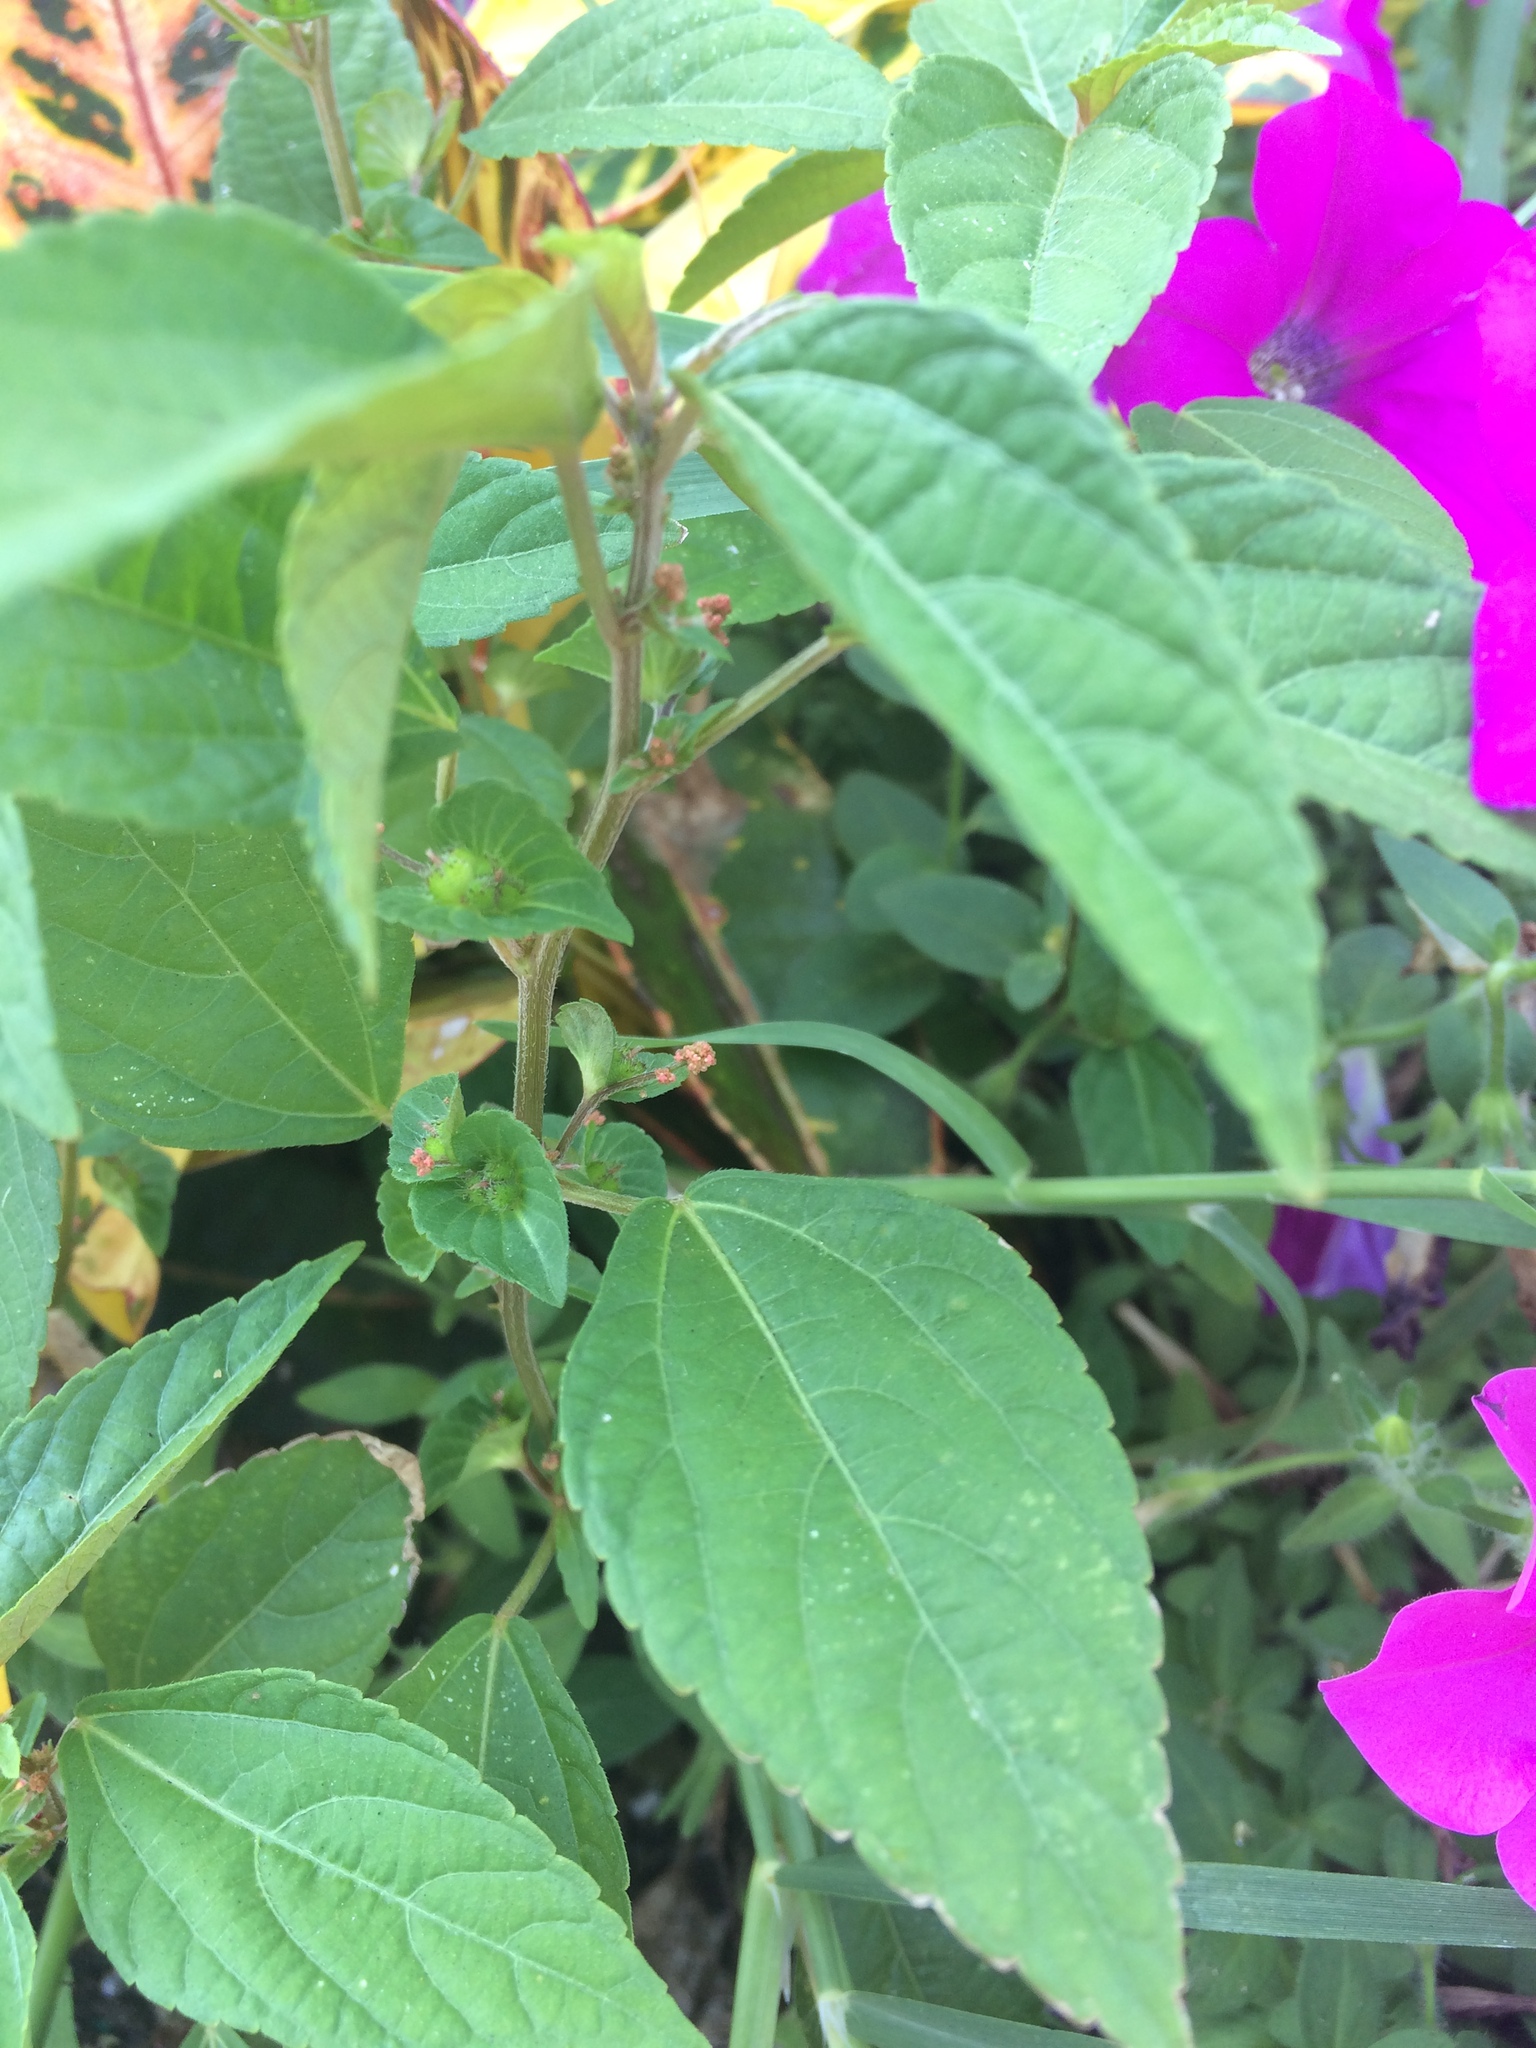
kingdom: Plantae
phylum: Tracheophyta
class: Magnoliopsida
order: Malpighiales
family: Euphorbiaceae
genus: Acalypha
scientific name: Acalypha australis
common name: Asian copperleaf
